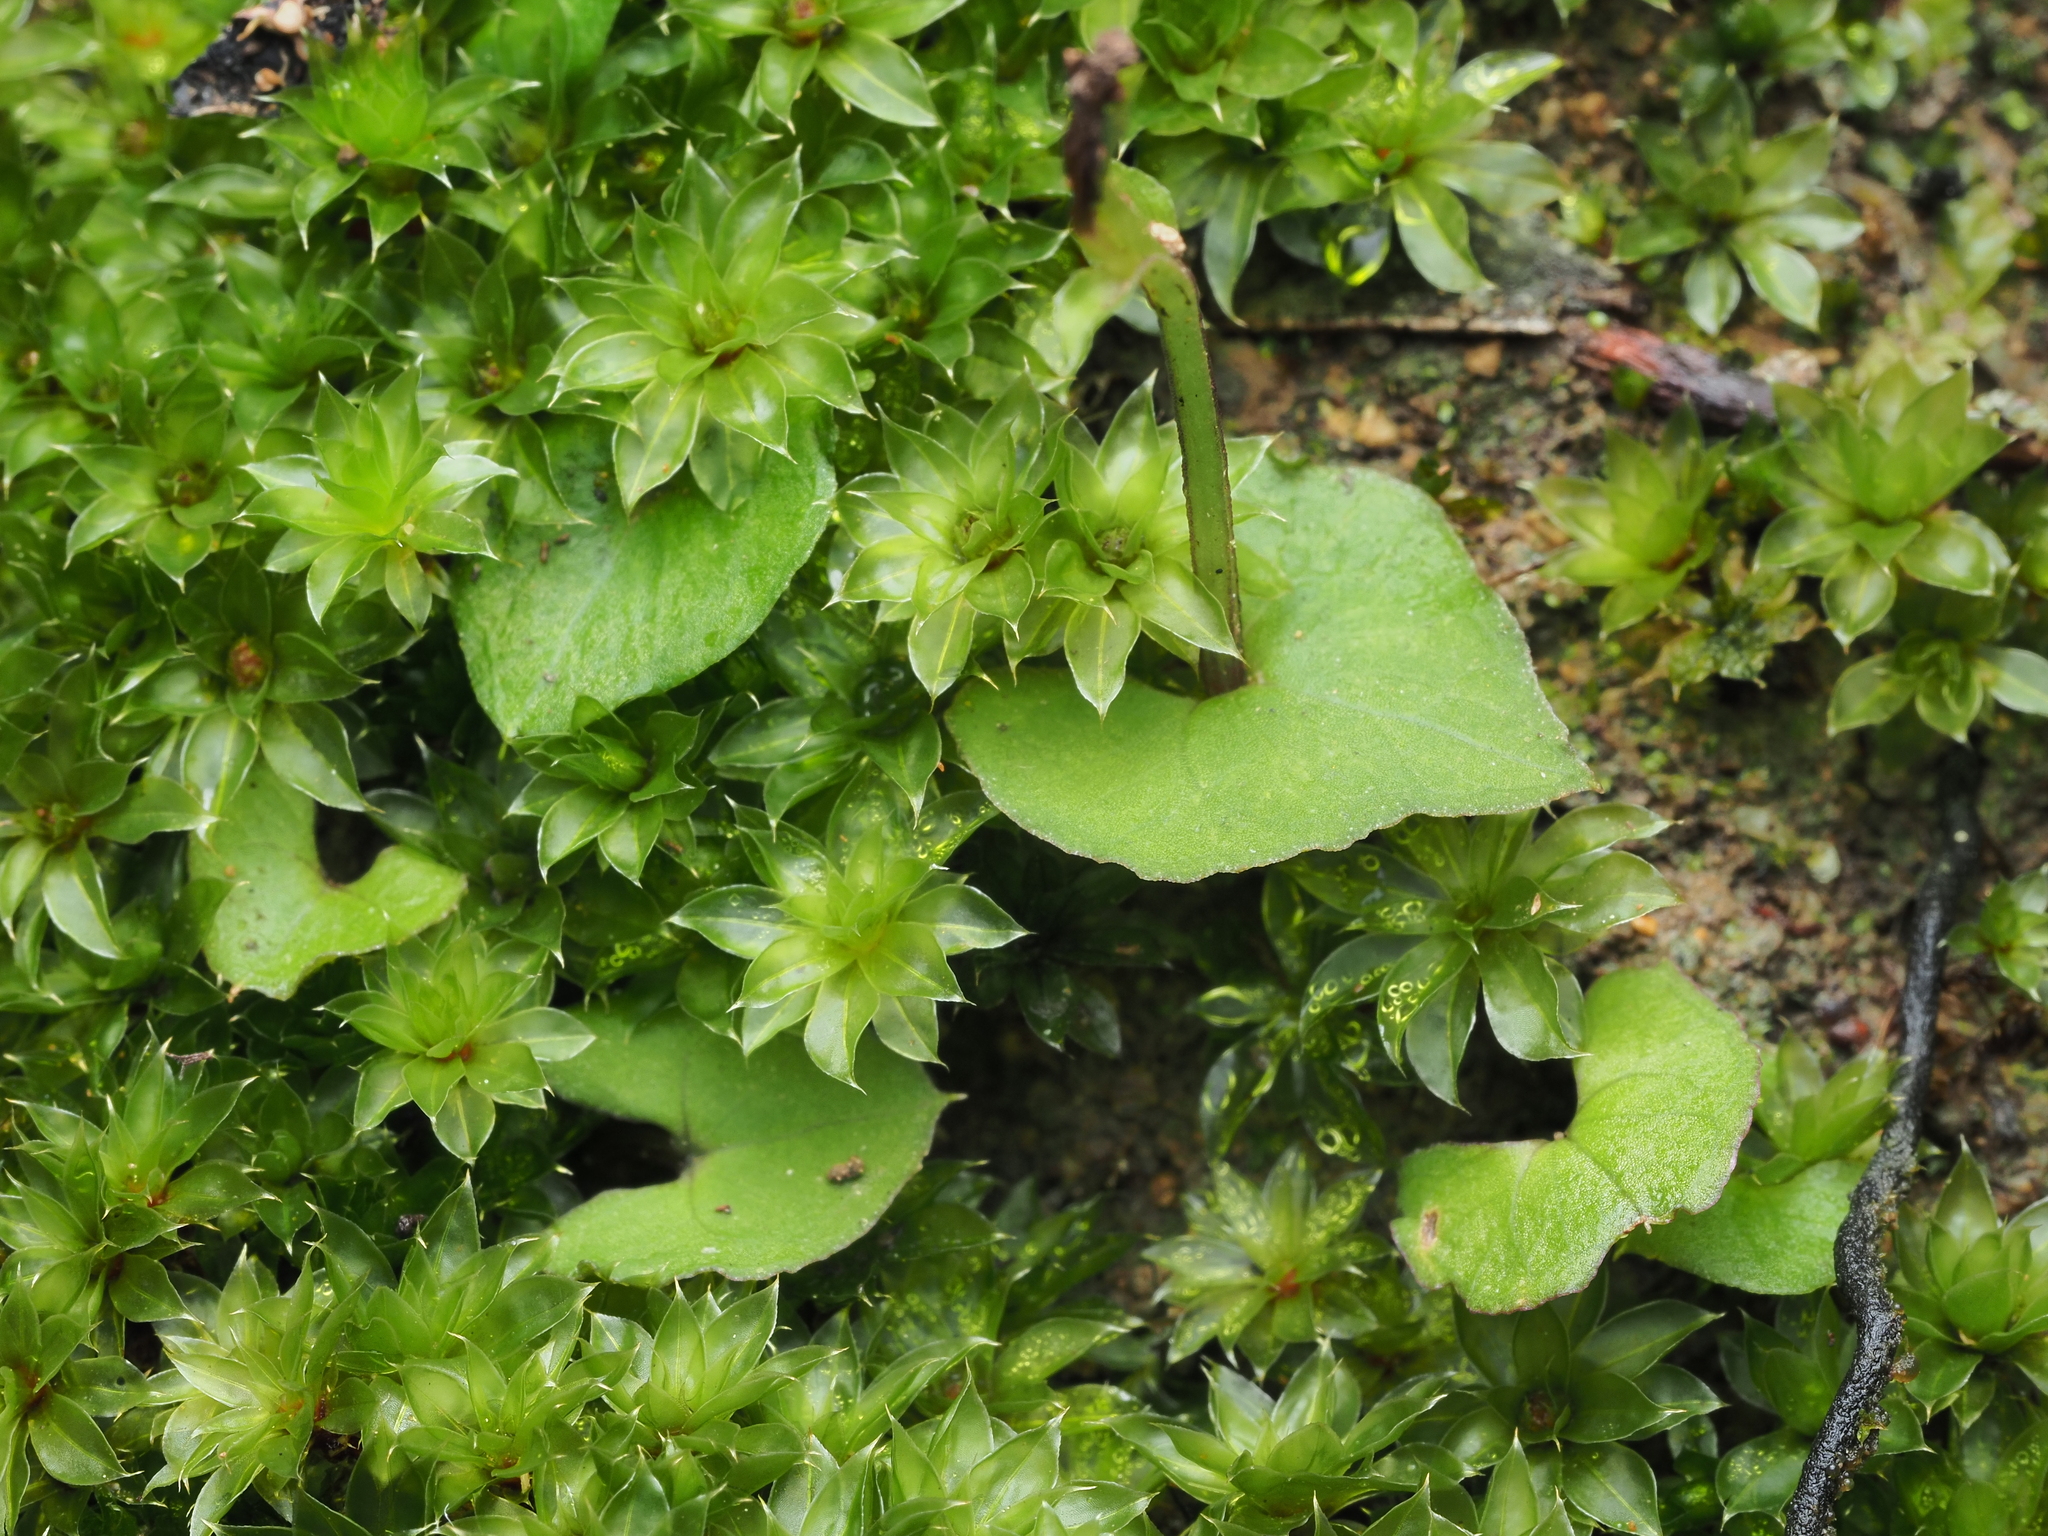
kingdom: Plantae
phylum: Tracheophyta
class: Liliopsida
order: Asparagales
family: Orchidaceae
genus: Acianthus
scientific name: Acianthus sinclairii
